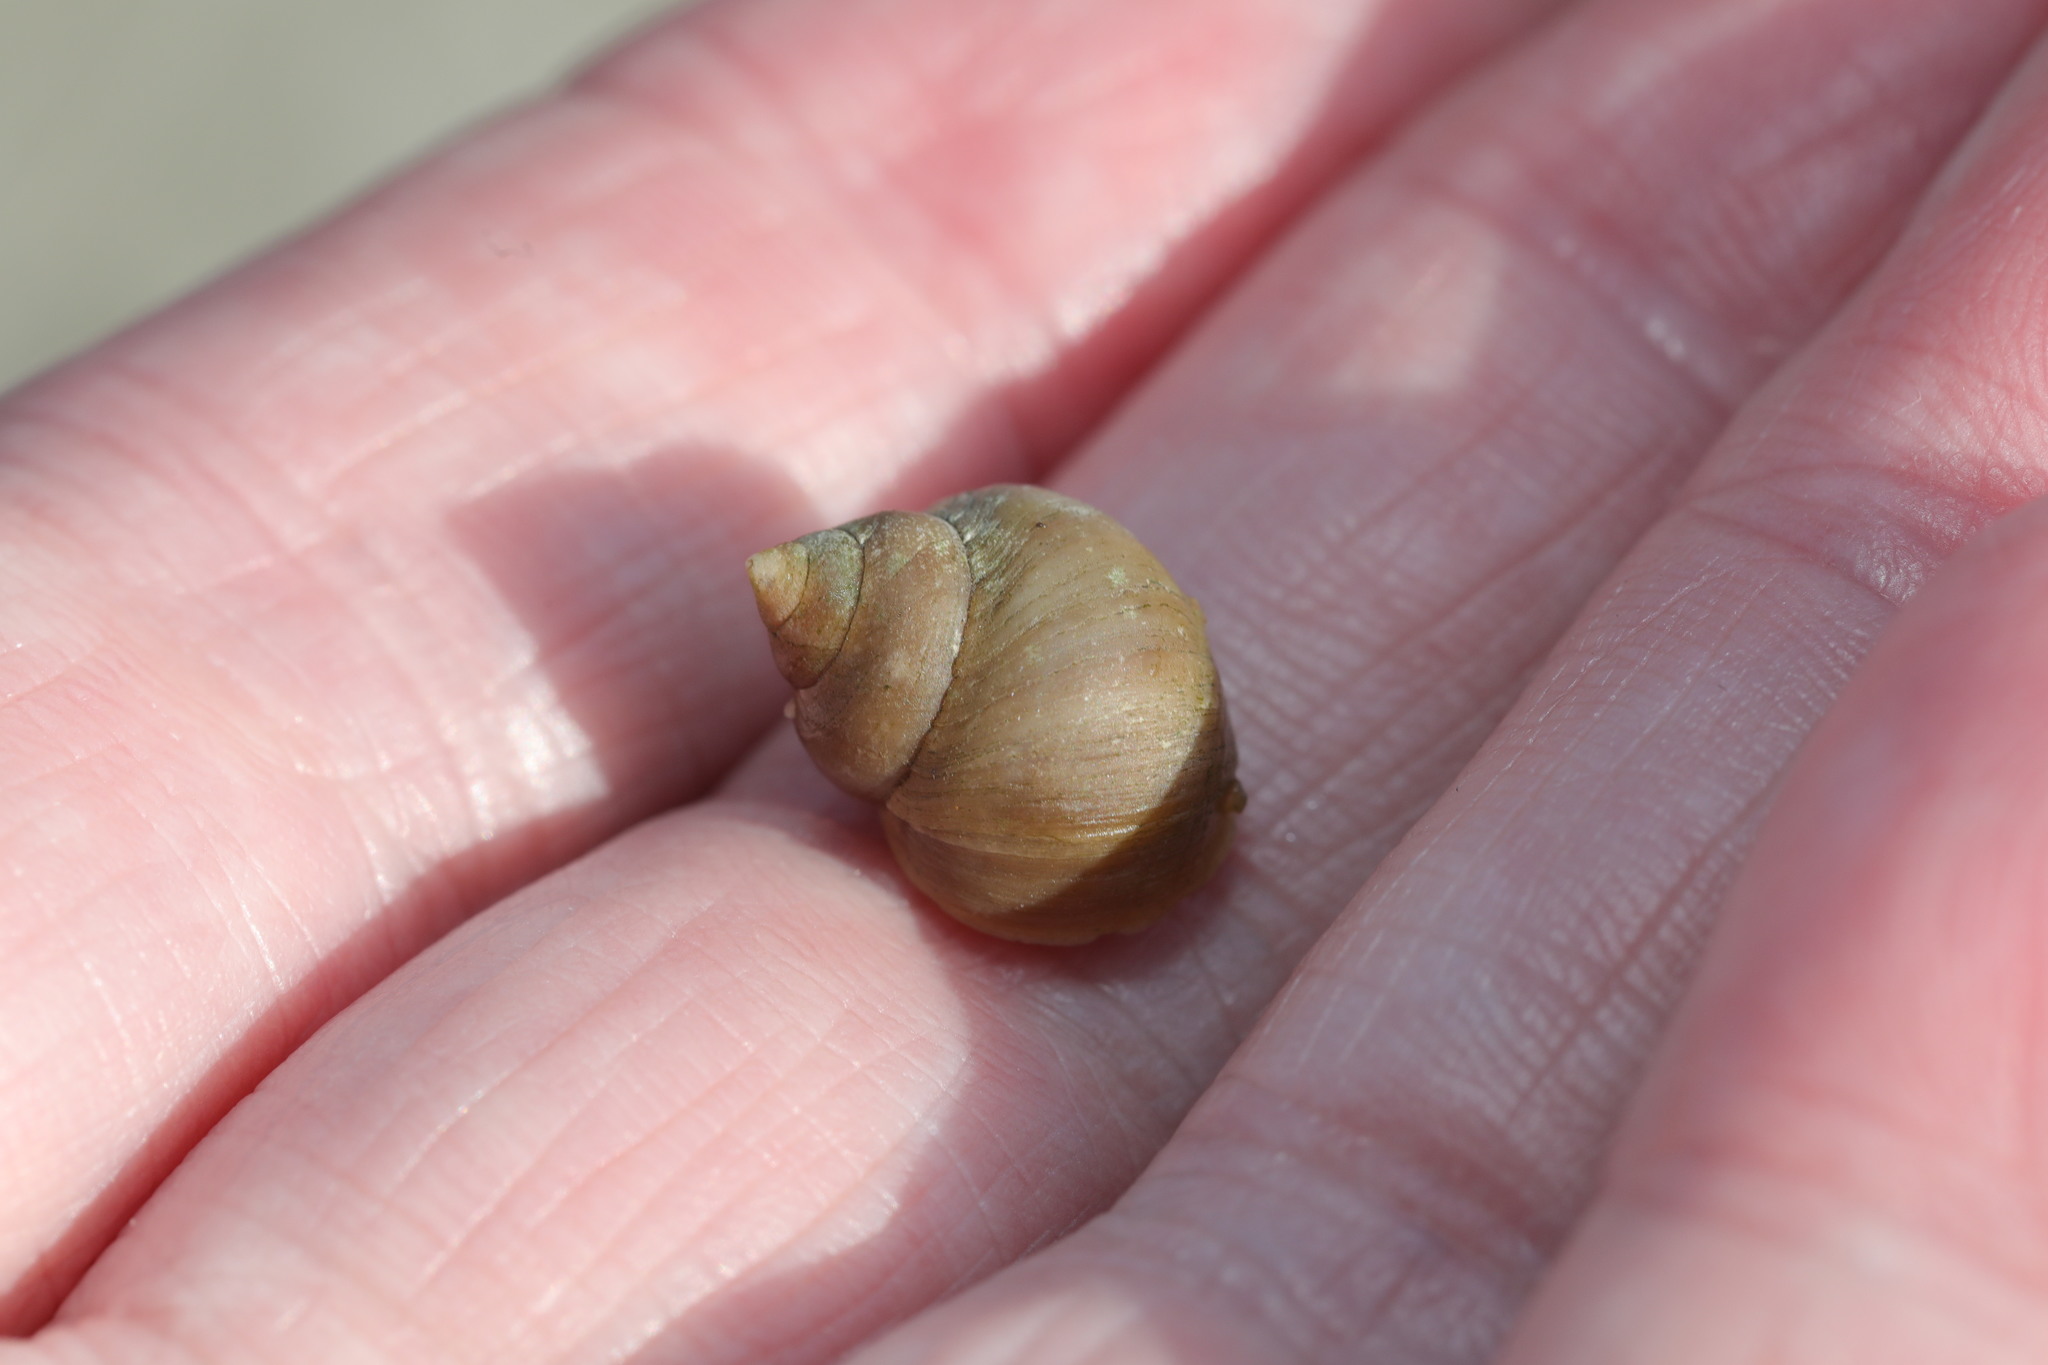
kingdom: Animalia
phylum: Mollusca
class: Gastropoda
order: Littorinimorpha
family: Littorinidae
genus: Littorina
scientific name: Littorina saxatilis
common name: Black-lined periwinkle
